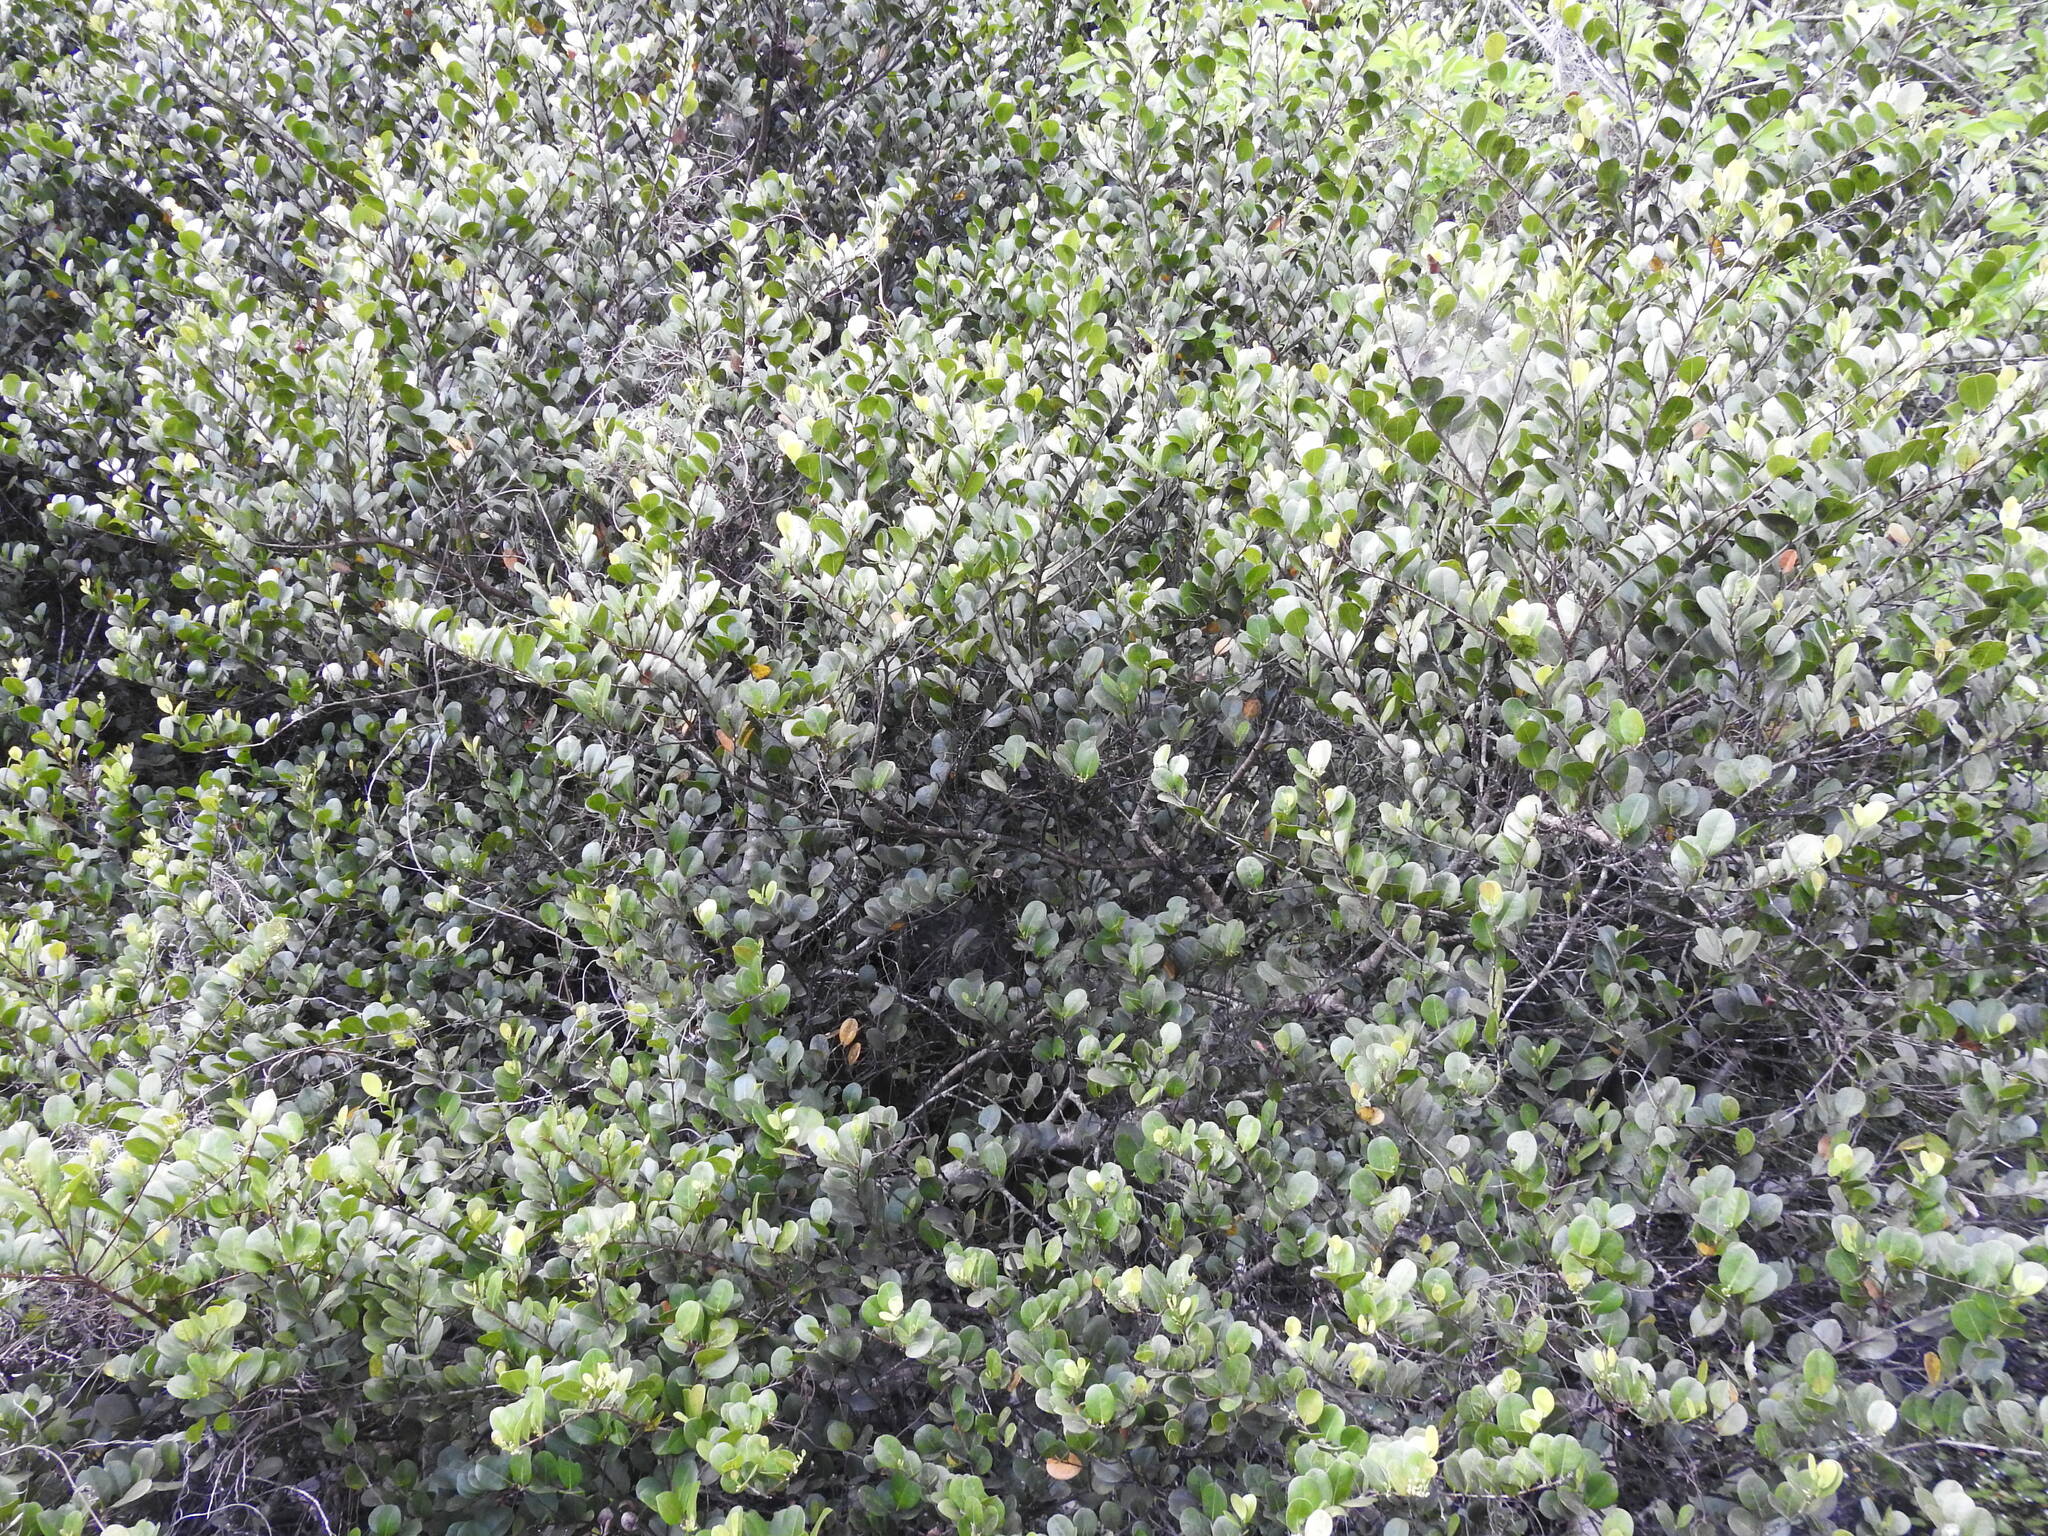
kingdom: Plantae
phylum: Tracheophyta
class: Magnoliopsida
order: Malpighiales
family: Chrysobalanaceae
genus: Chrysobalanus
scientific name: Chrysobalanus icaco
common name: Coco plum
